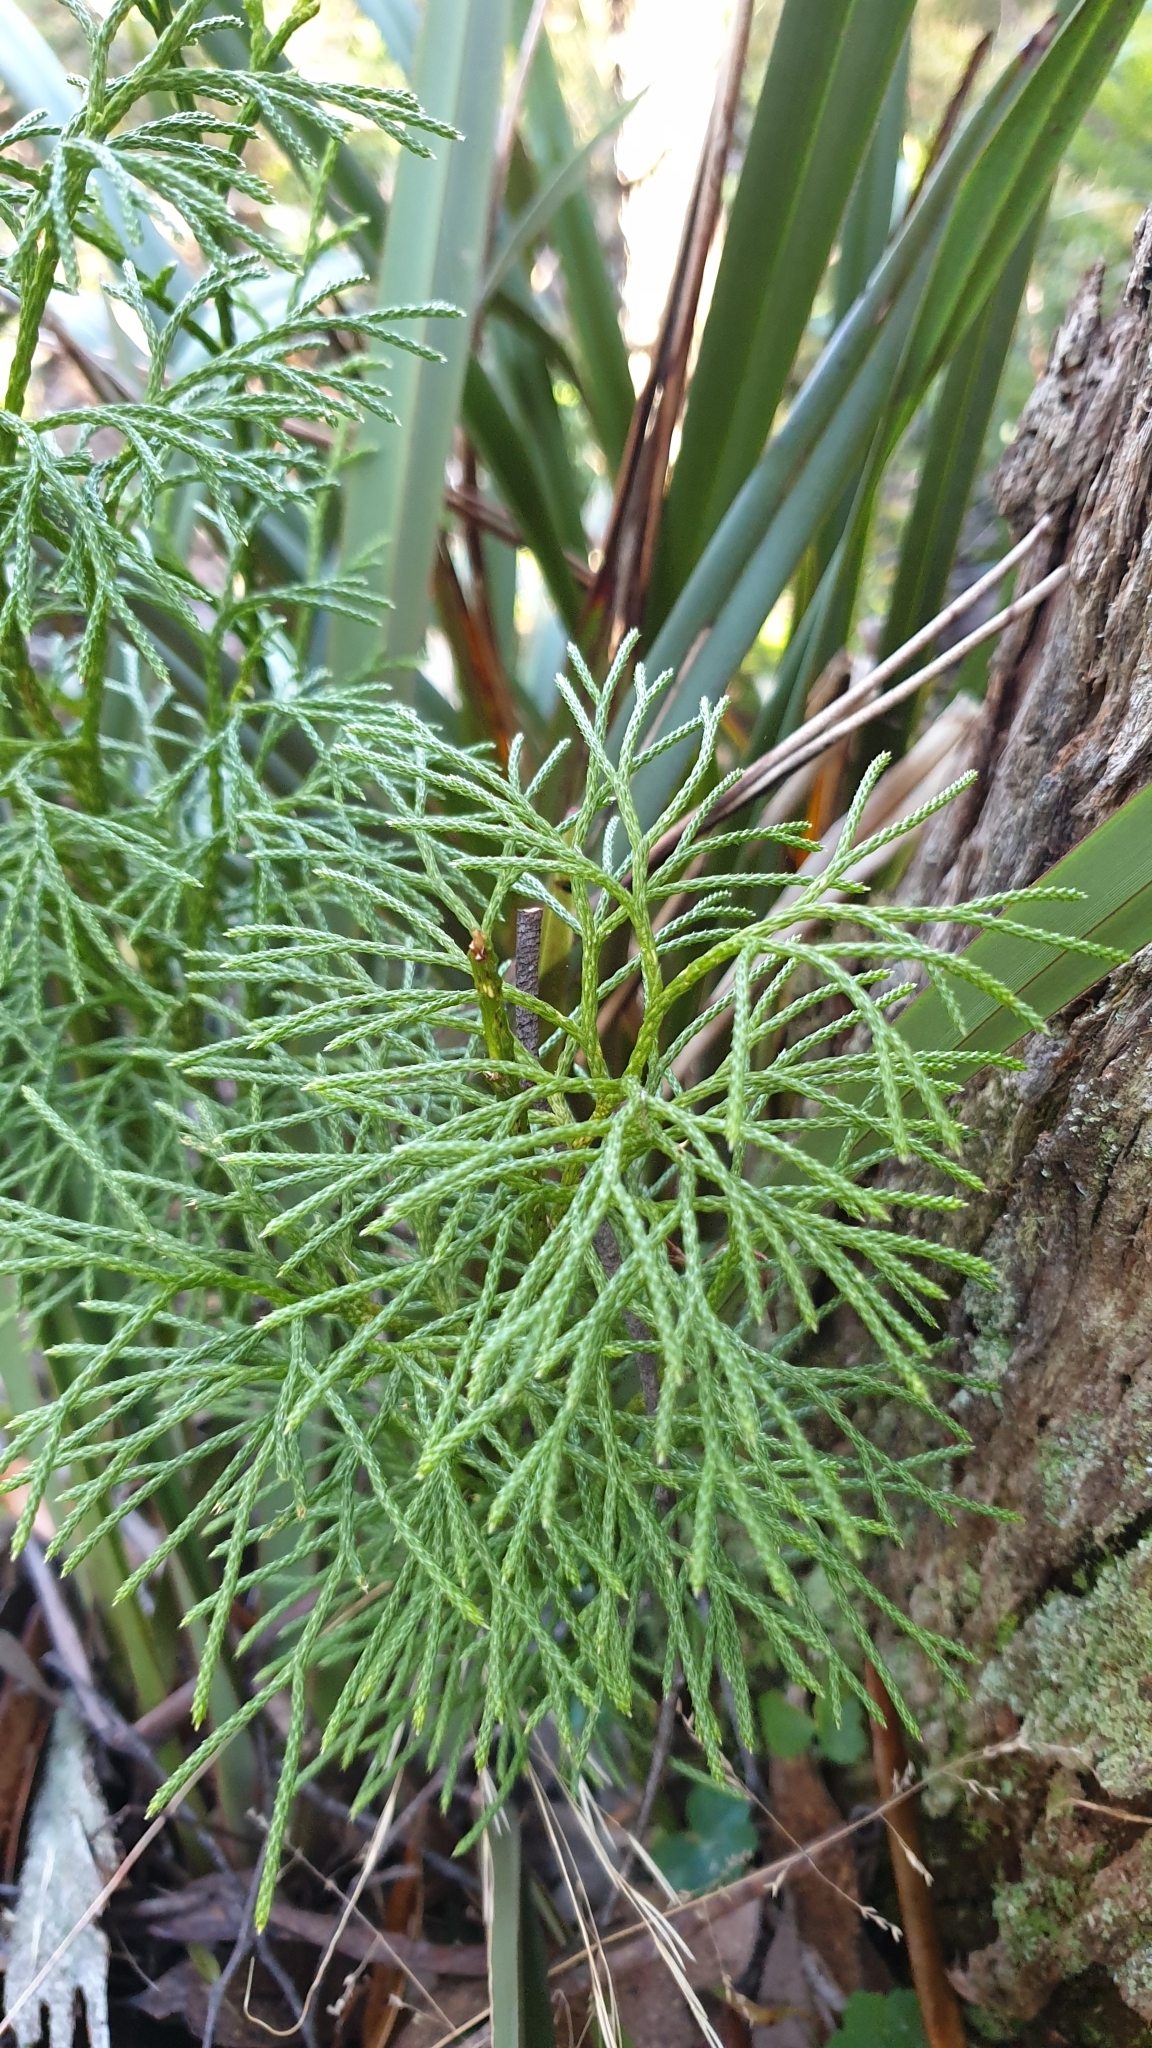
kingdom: Plantae
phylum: Tracheophyta
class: Lycopodiopsida
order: Lycopodiales
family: Lycopodiaceae
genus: Pseudolycopodium
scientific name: Pseudolycopodium densum
